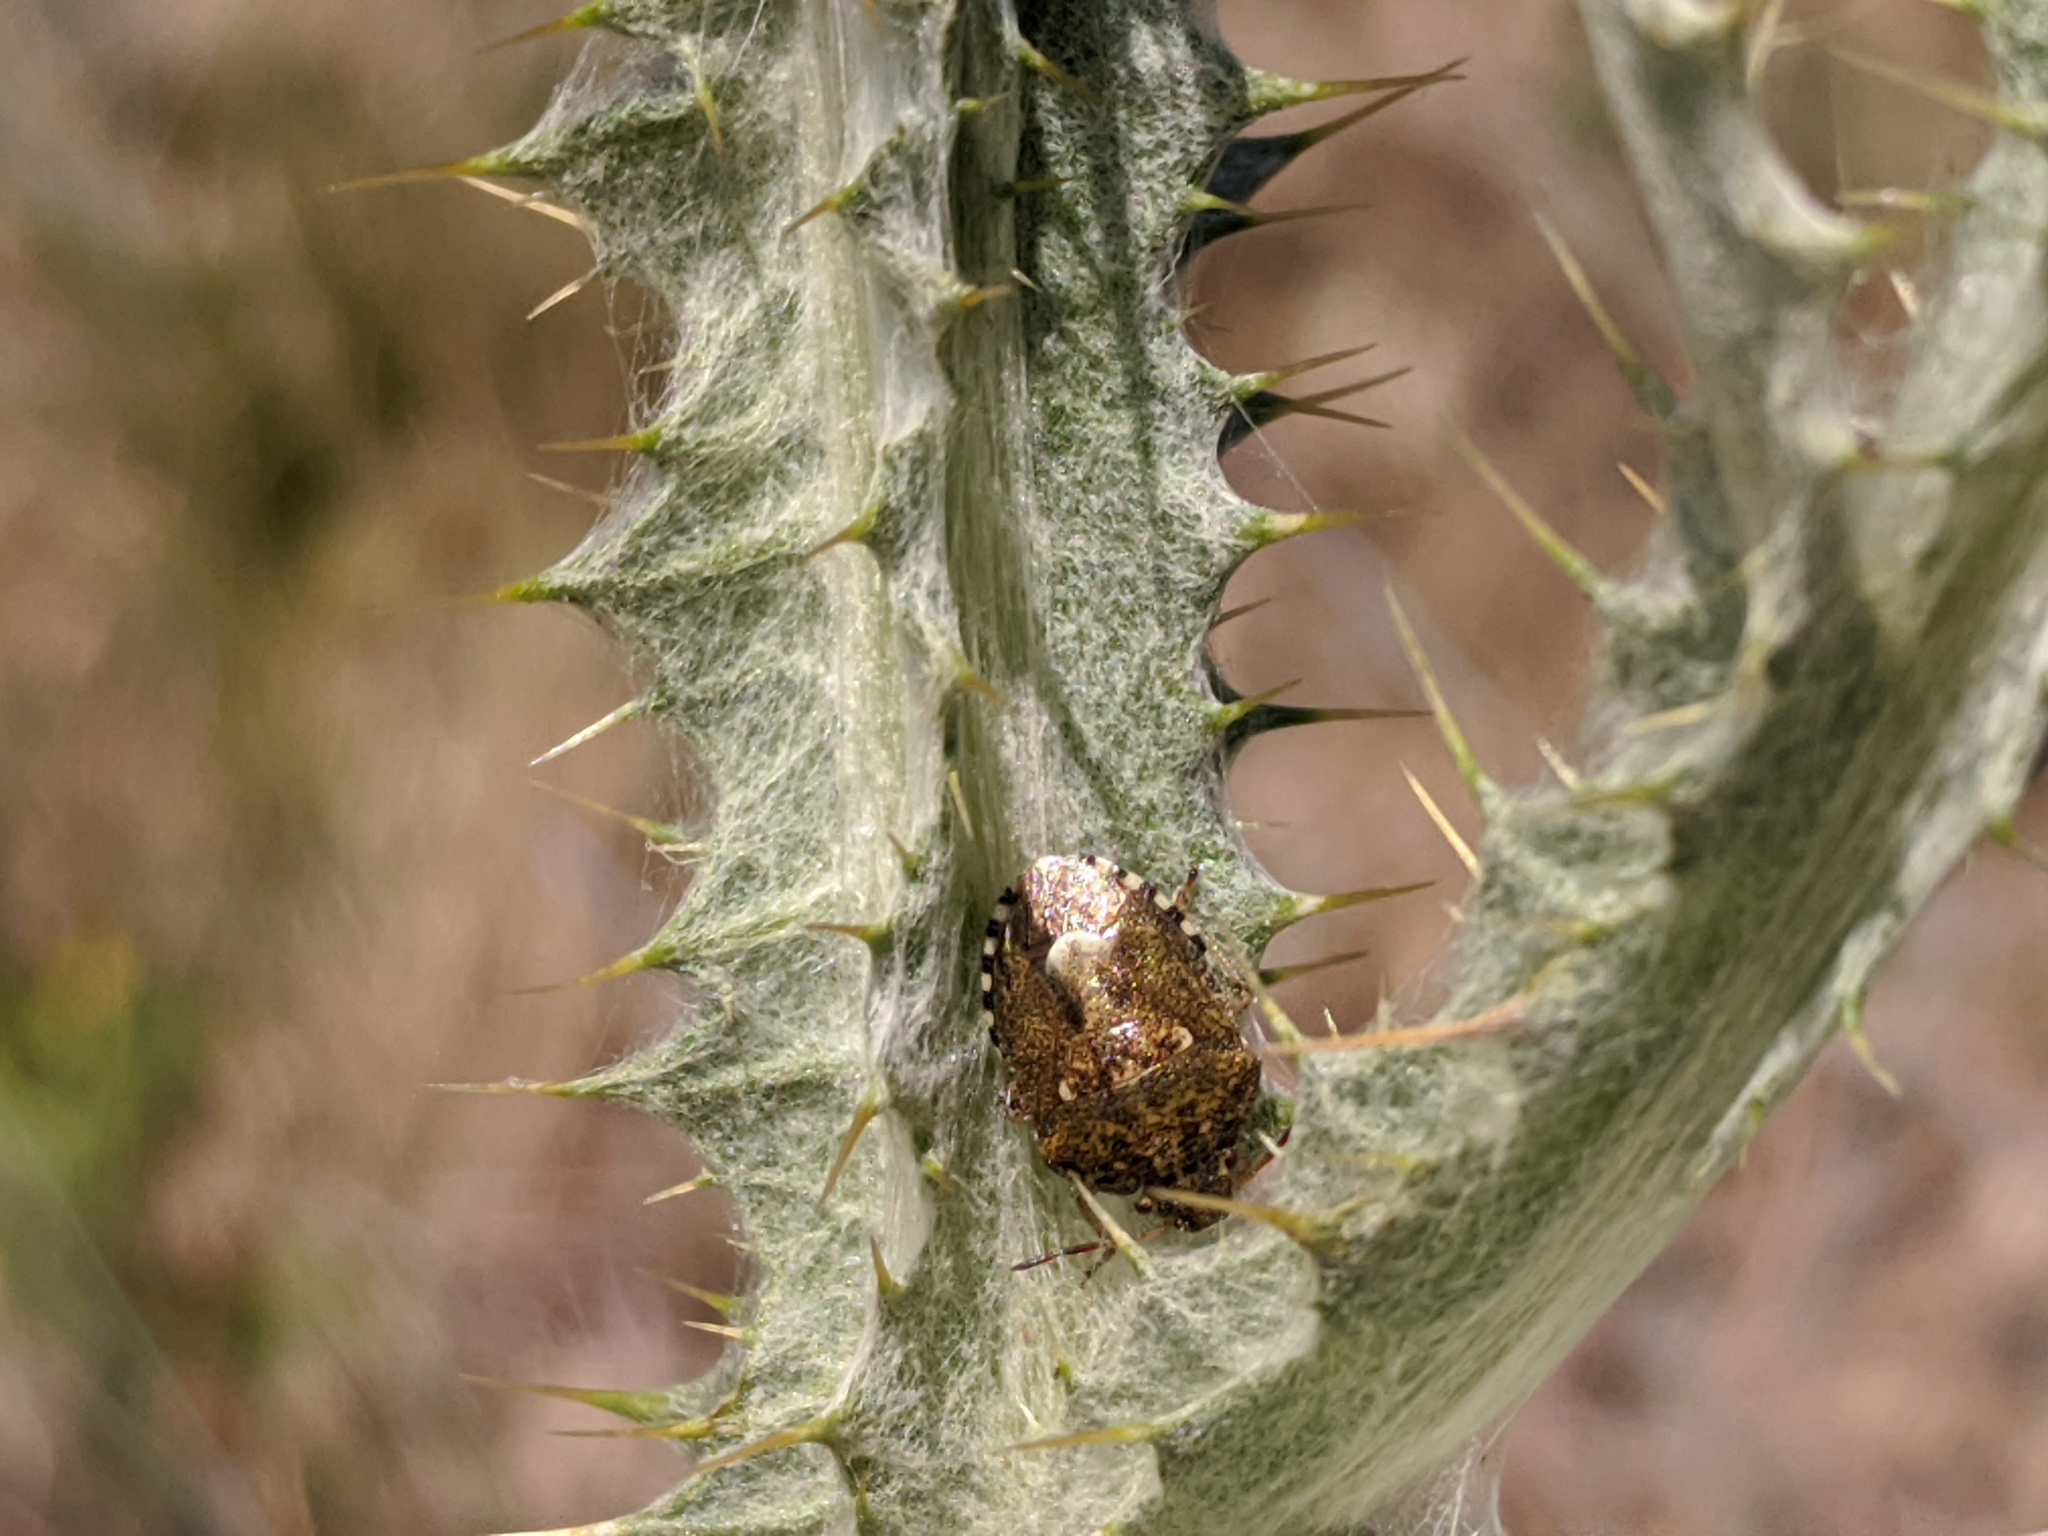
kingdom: Animalia
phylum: Arthropoda
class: Insecta
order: Hemiptera
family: Pentatomidae
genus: Staria
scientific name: Staria lunata
